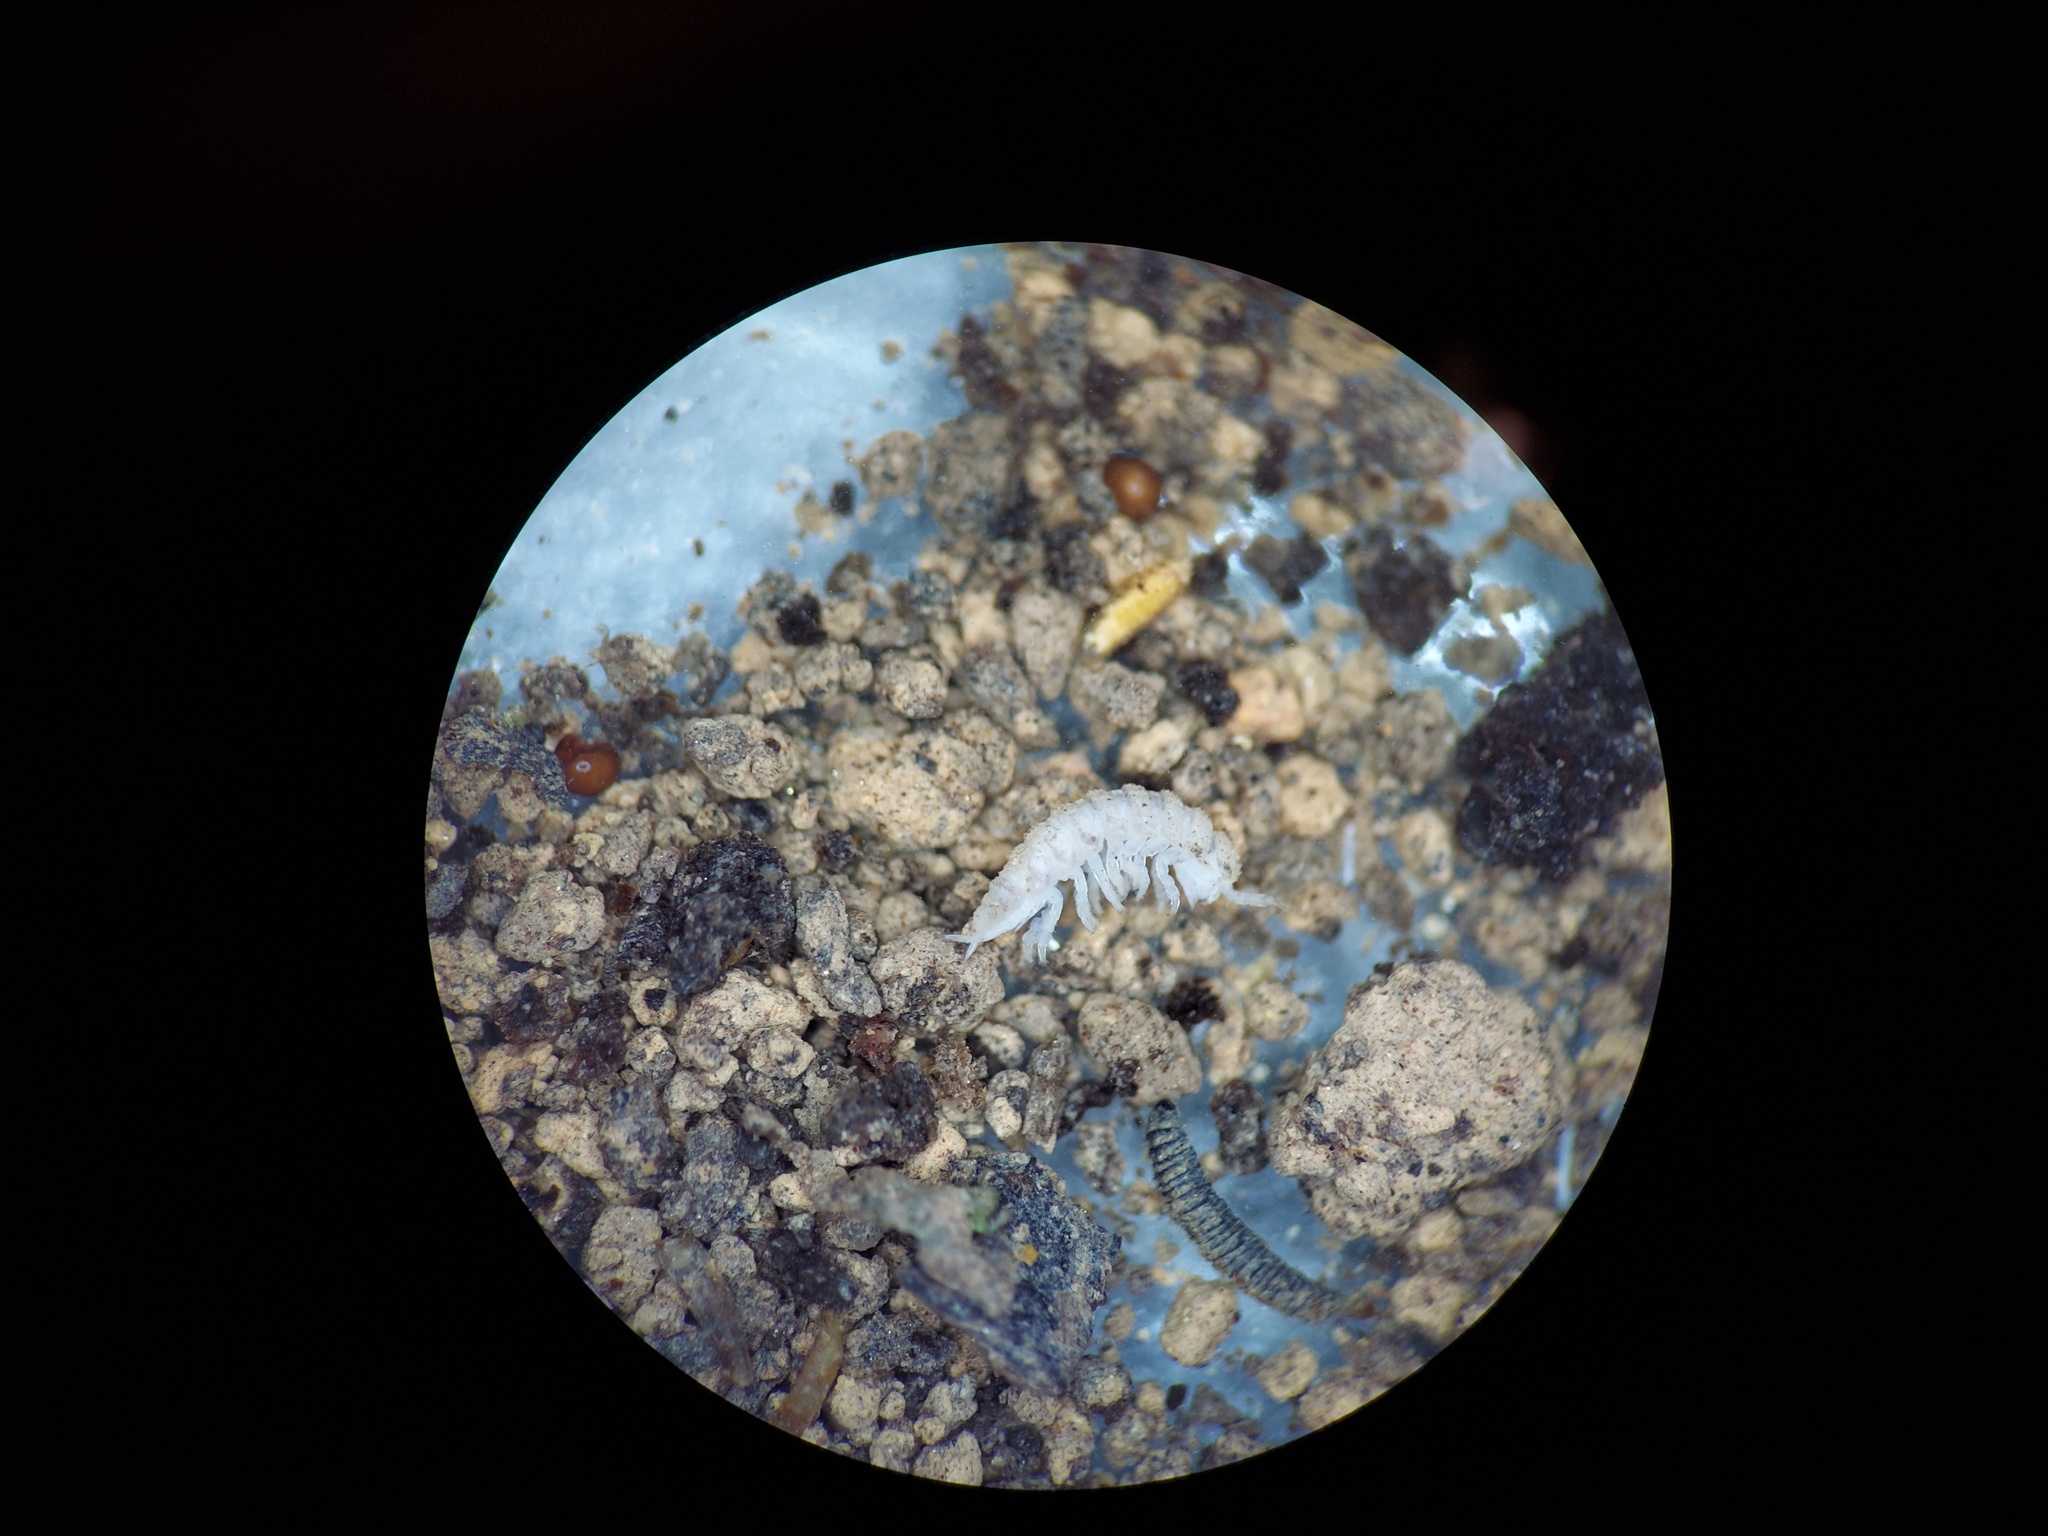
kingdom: Animalia
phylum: Arthropoda
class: Malacostraca
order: Isopoda
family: Trichoniscidae
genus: Haplophthalmus
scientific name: Haplophthalmus danicus
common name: Pillbug
